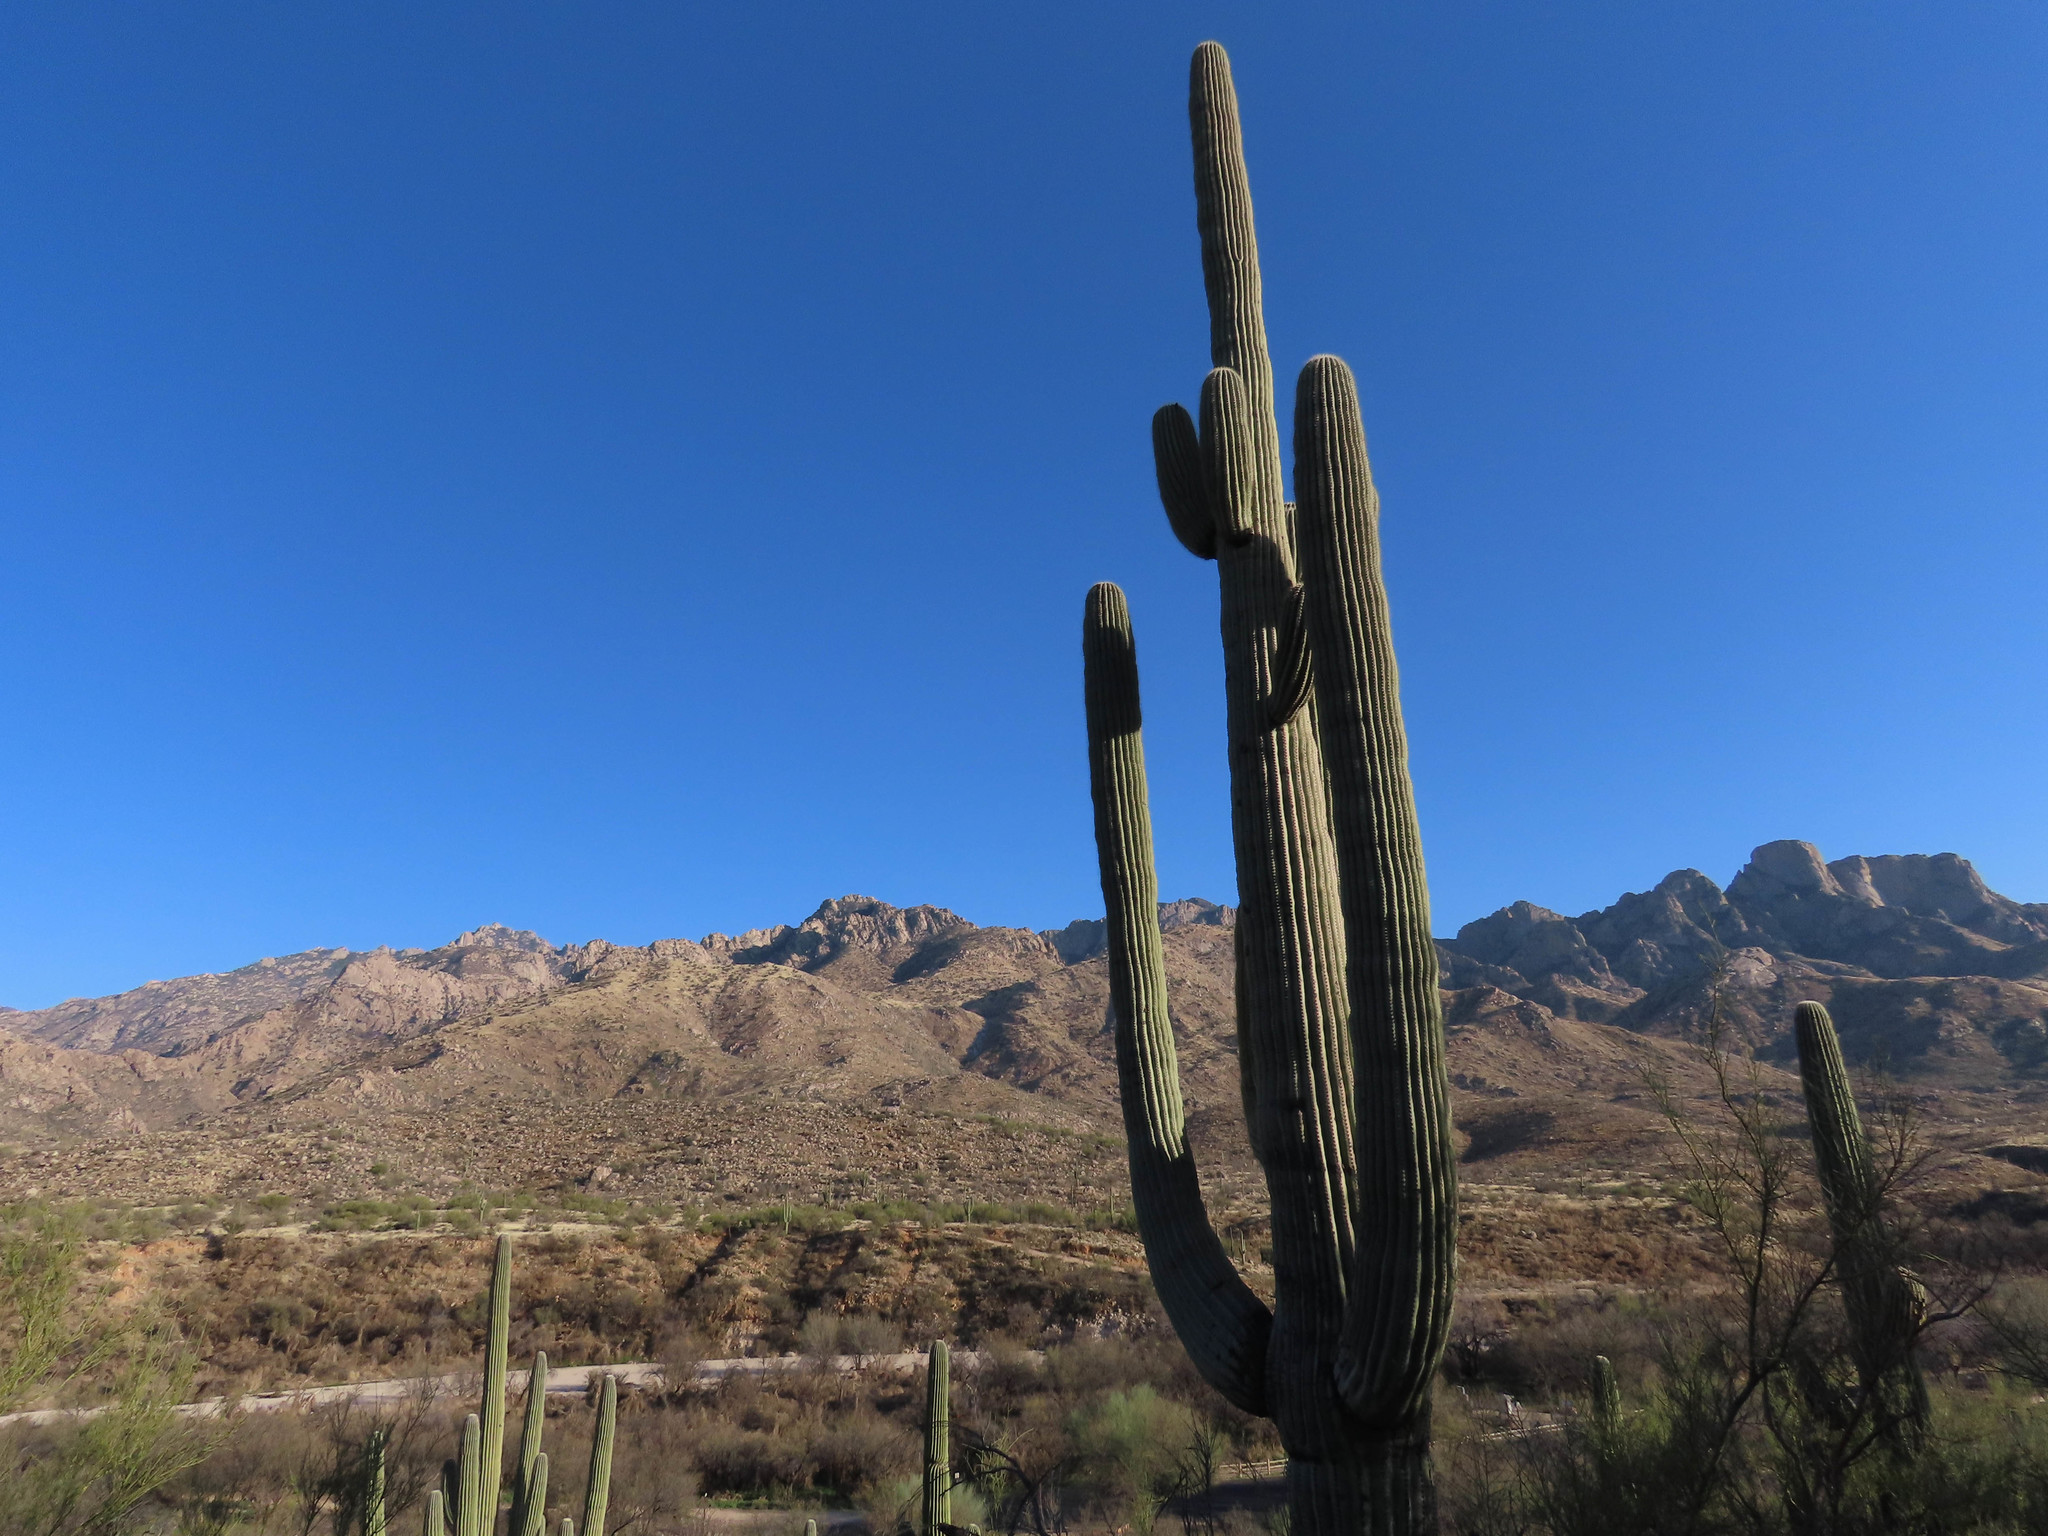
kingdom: Plantae
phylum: Tracheophyta
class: Magnoliopsida
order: Caryophyllales
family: Cactaceae
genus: Carnegiea
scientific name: Carnegiea gigantea
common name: Saguaro
